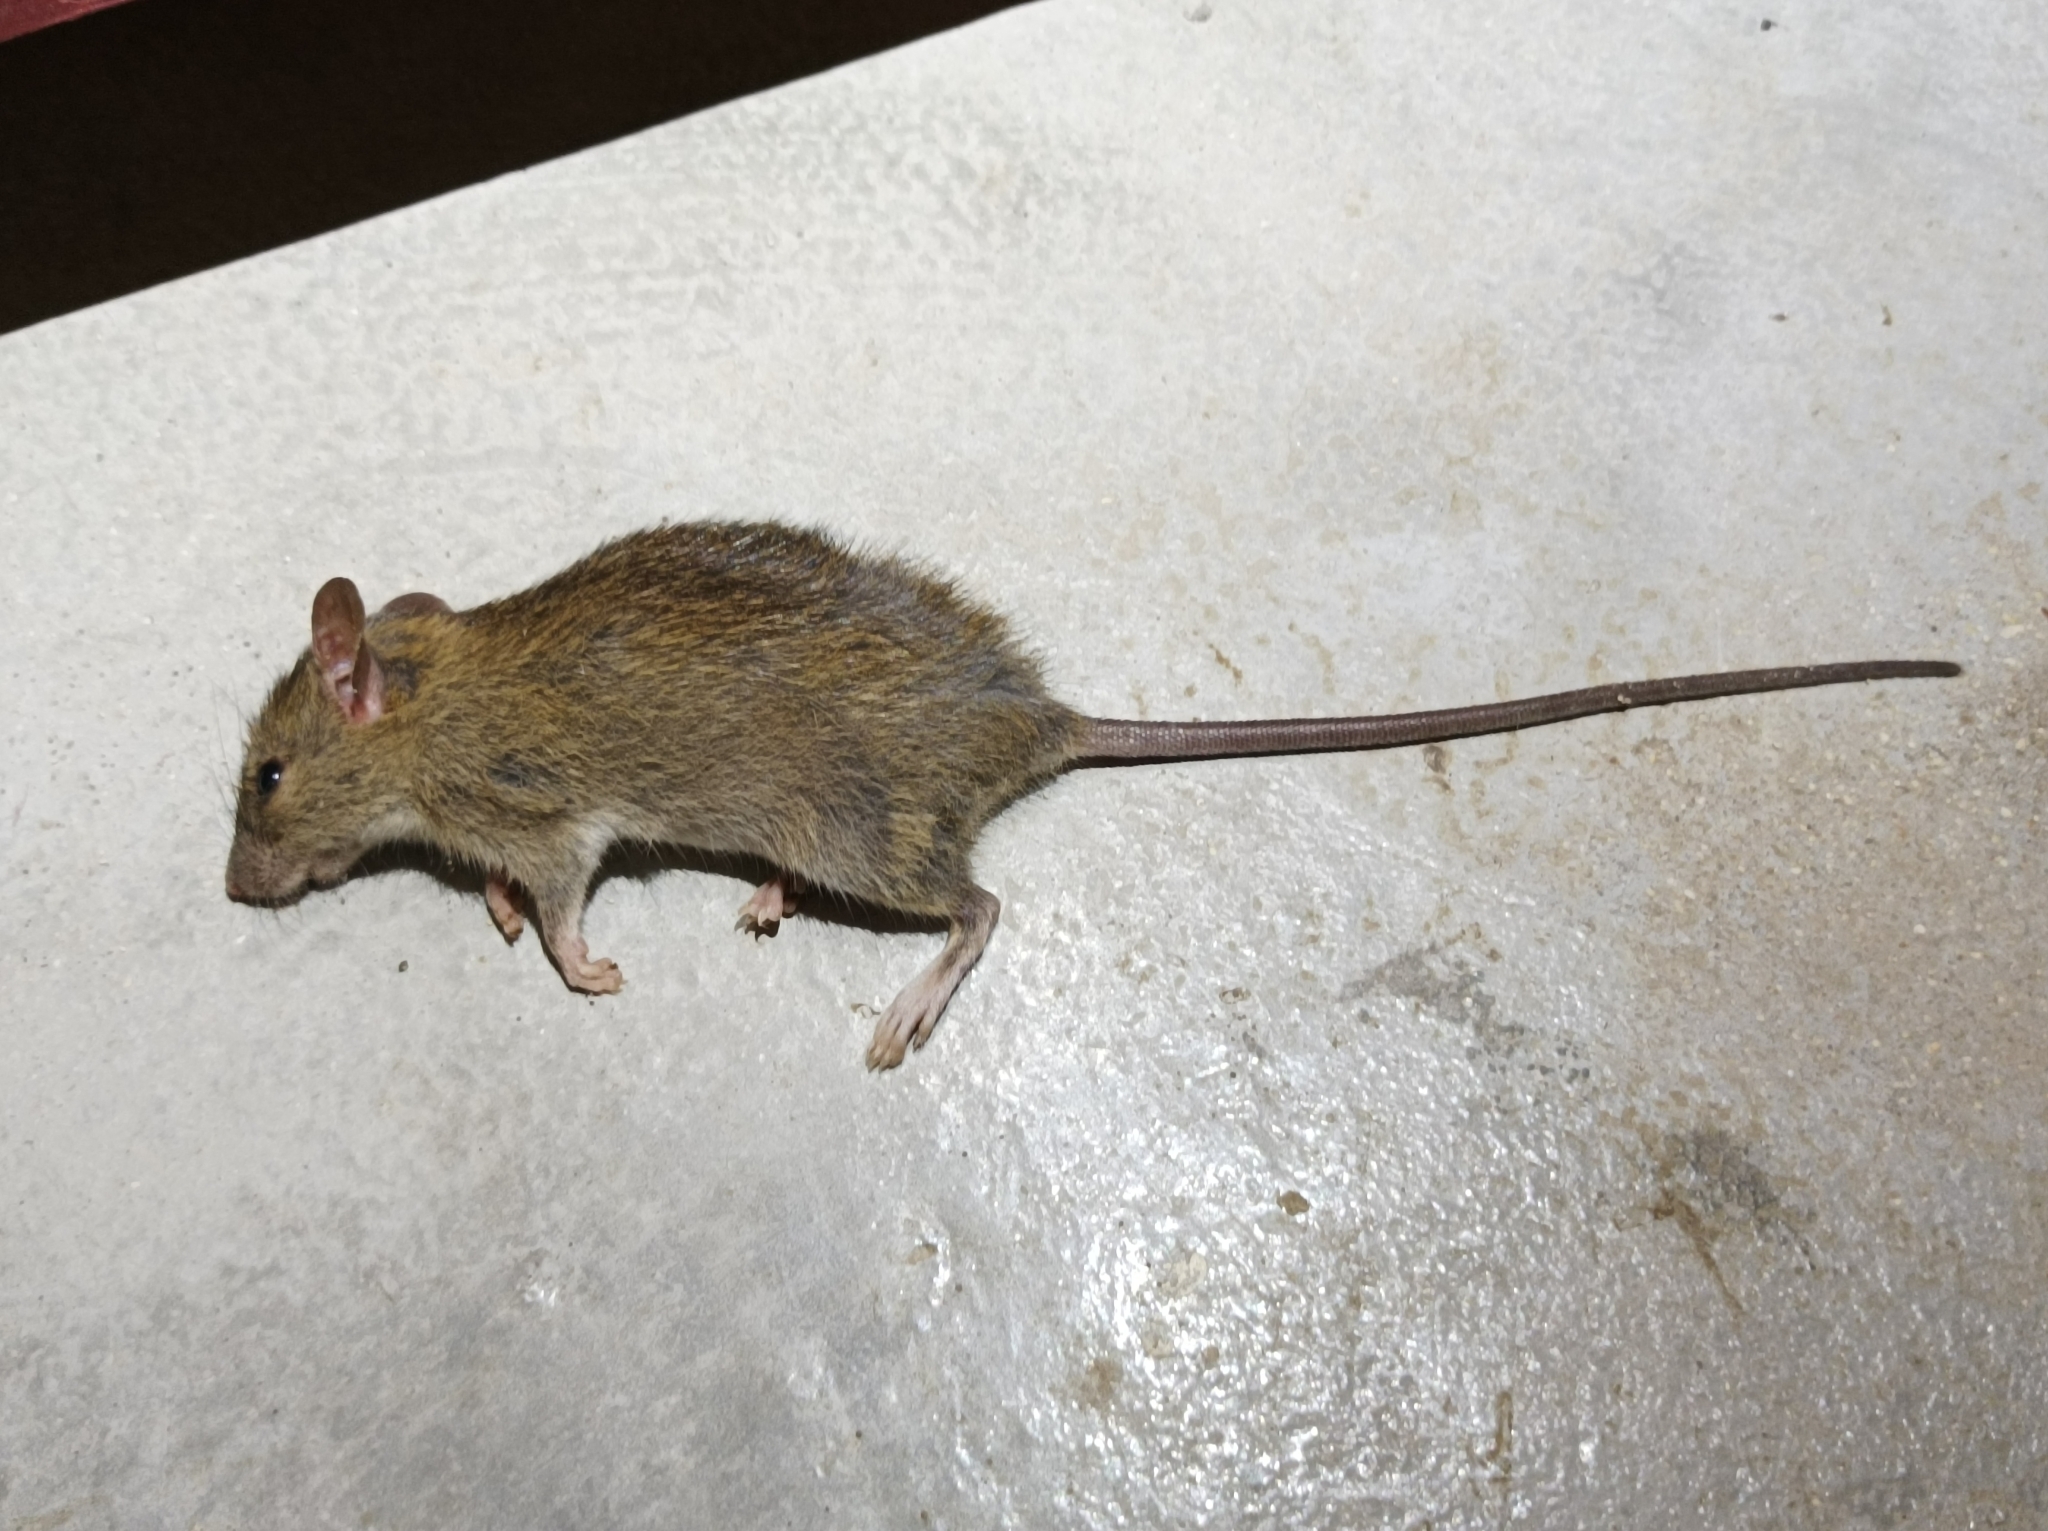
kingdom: Animalia
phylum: Chordata
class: Mammalia
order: Rodentia
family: Muridae
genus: Rattus
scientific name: Rattus exulans
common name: Polynesian rat
